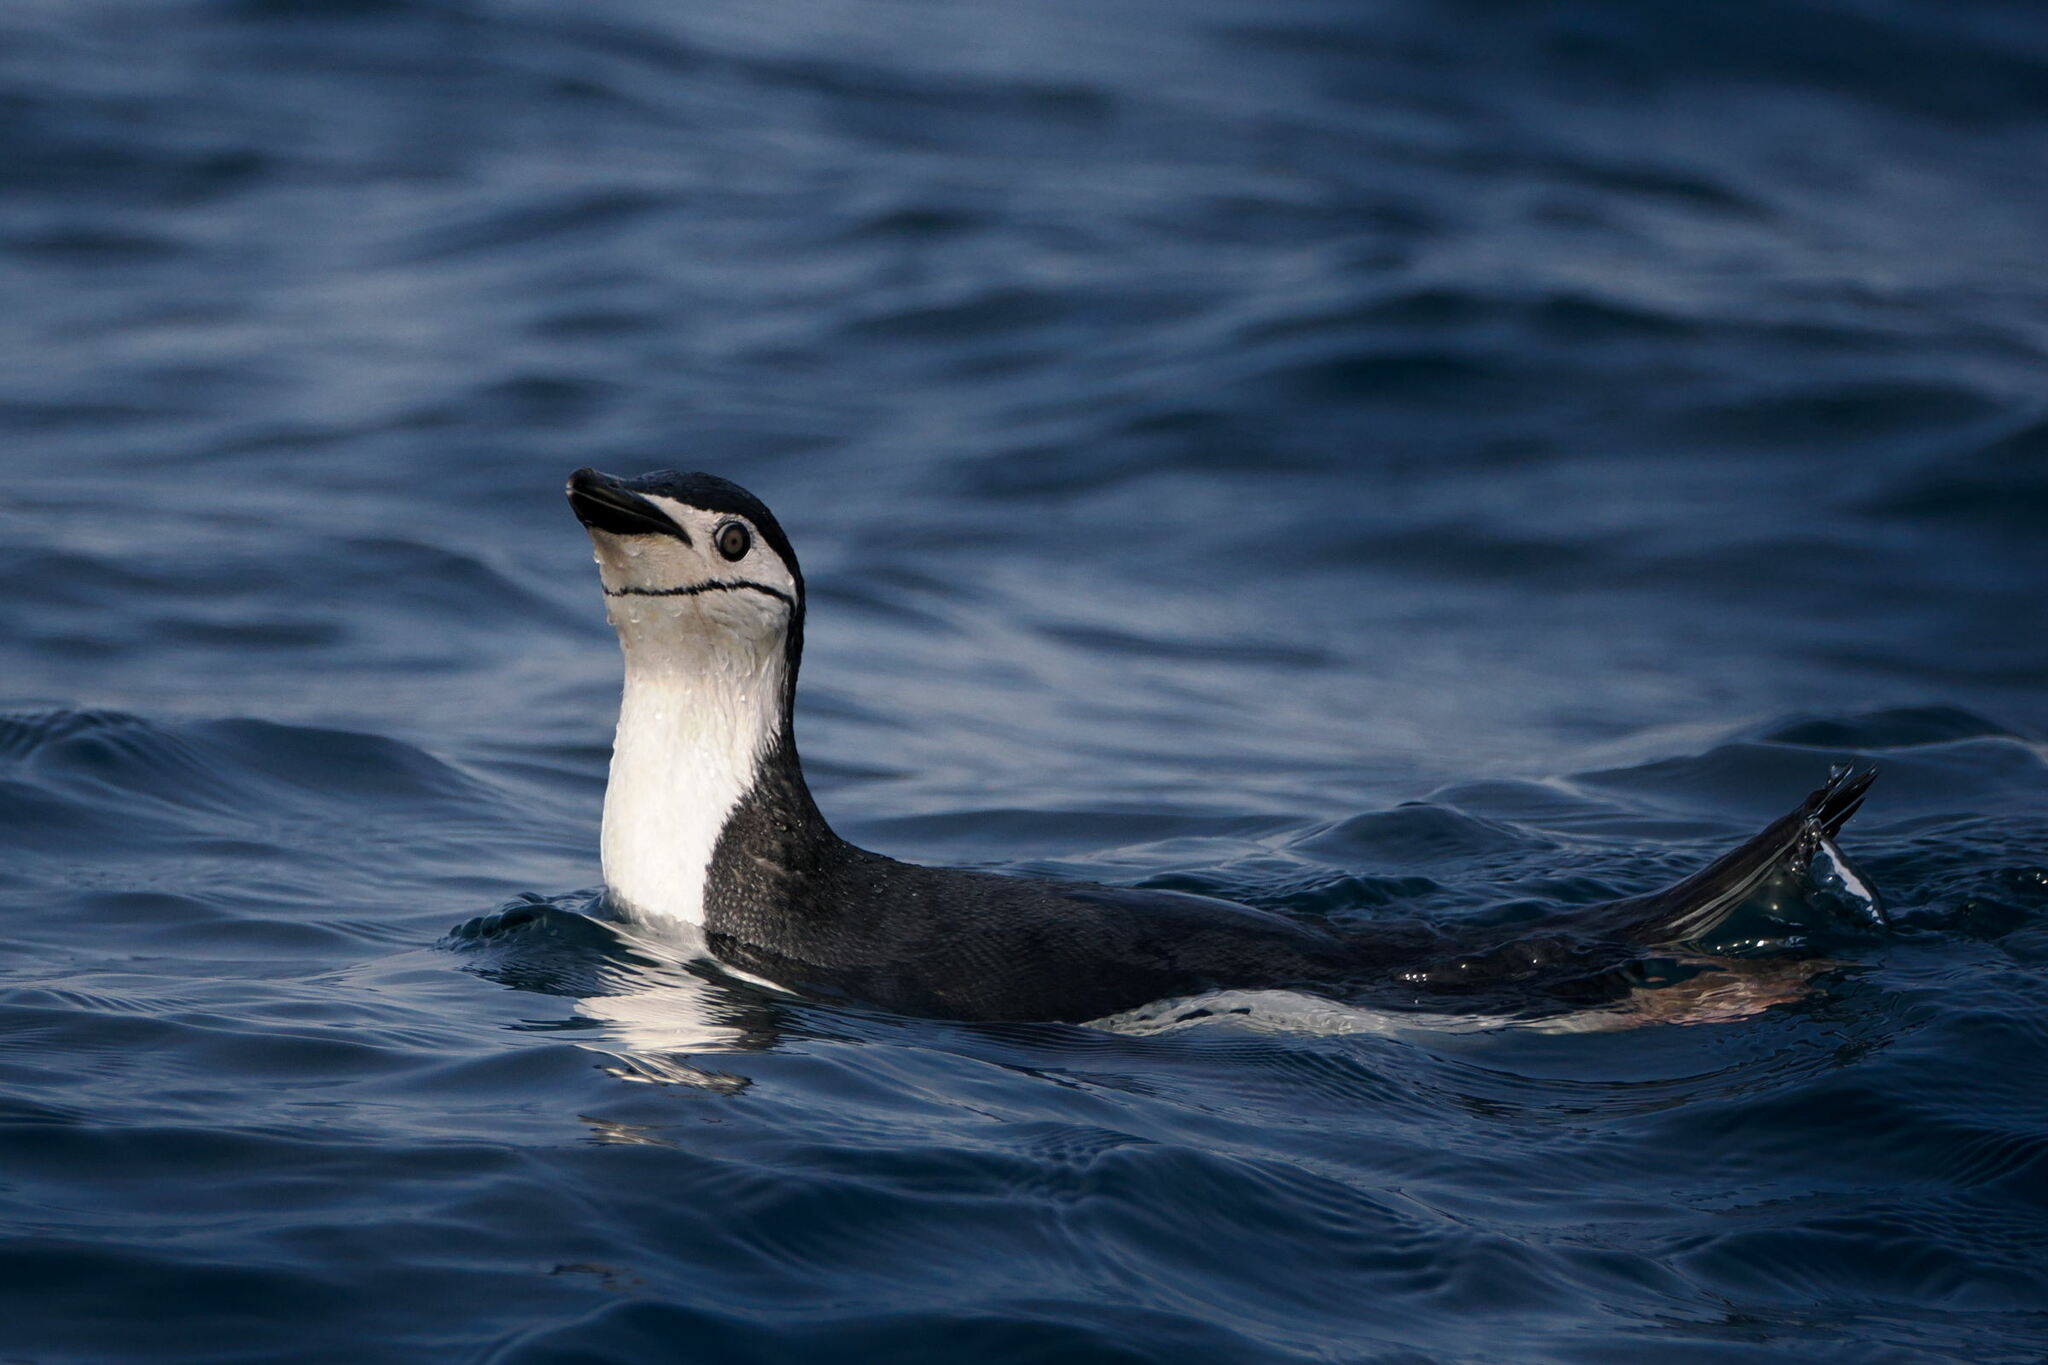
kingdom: Animalia
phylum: Chordata
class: Aves
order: Sphenisciformes
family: Spheniscidae
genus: Pygoscelis
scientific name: Pygoscelis antarcticus
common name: Chinstrap penguin
